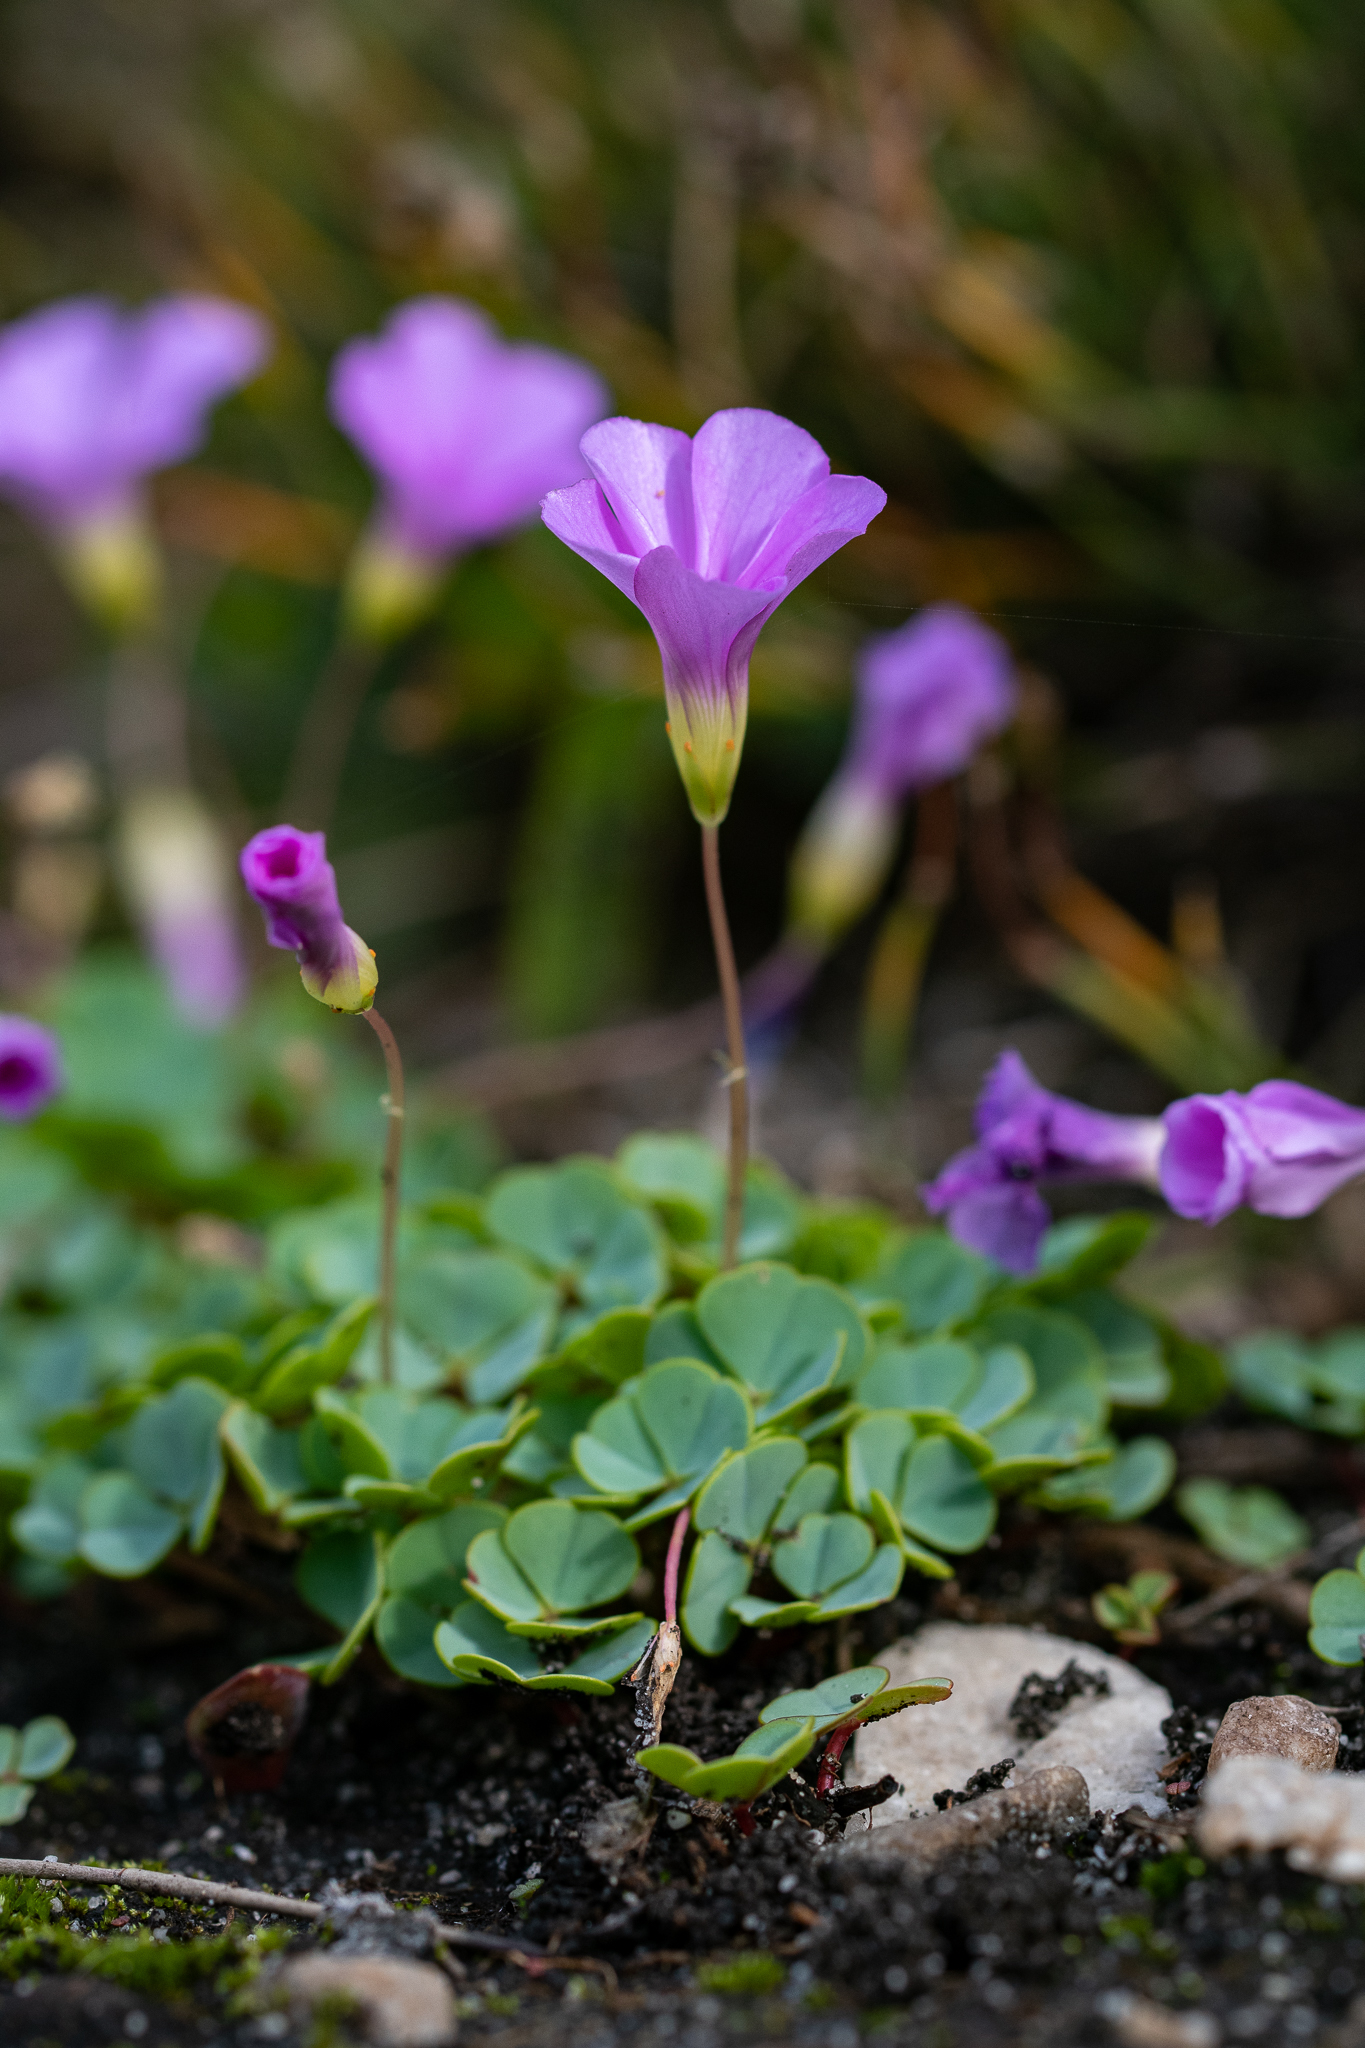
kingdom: Plantae
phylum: Tracheophyta
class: Magnoliopsida
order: Oxalidales
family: Oxalidaceae
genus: Oxalis
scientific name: Oxalis commutata
